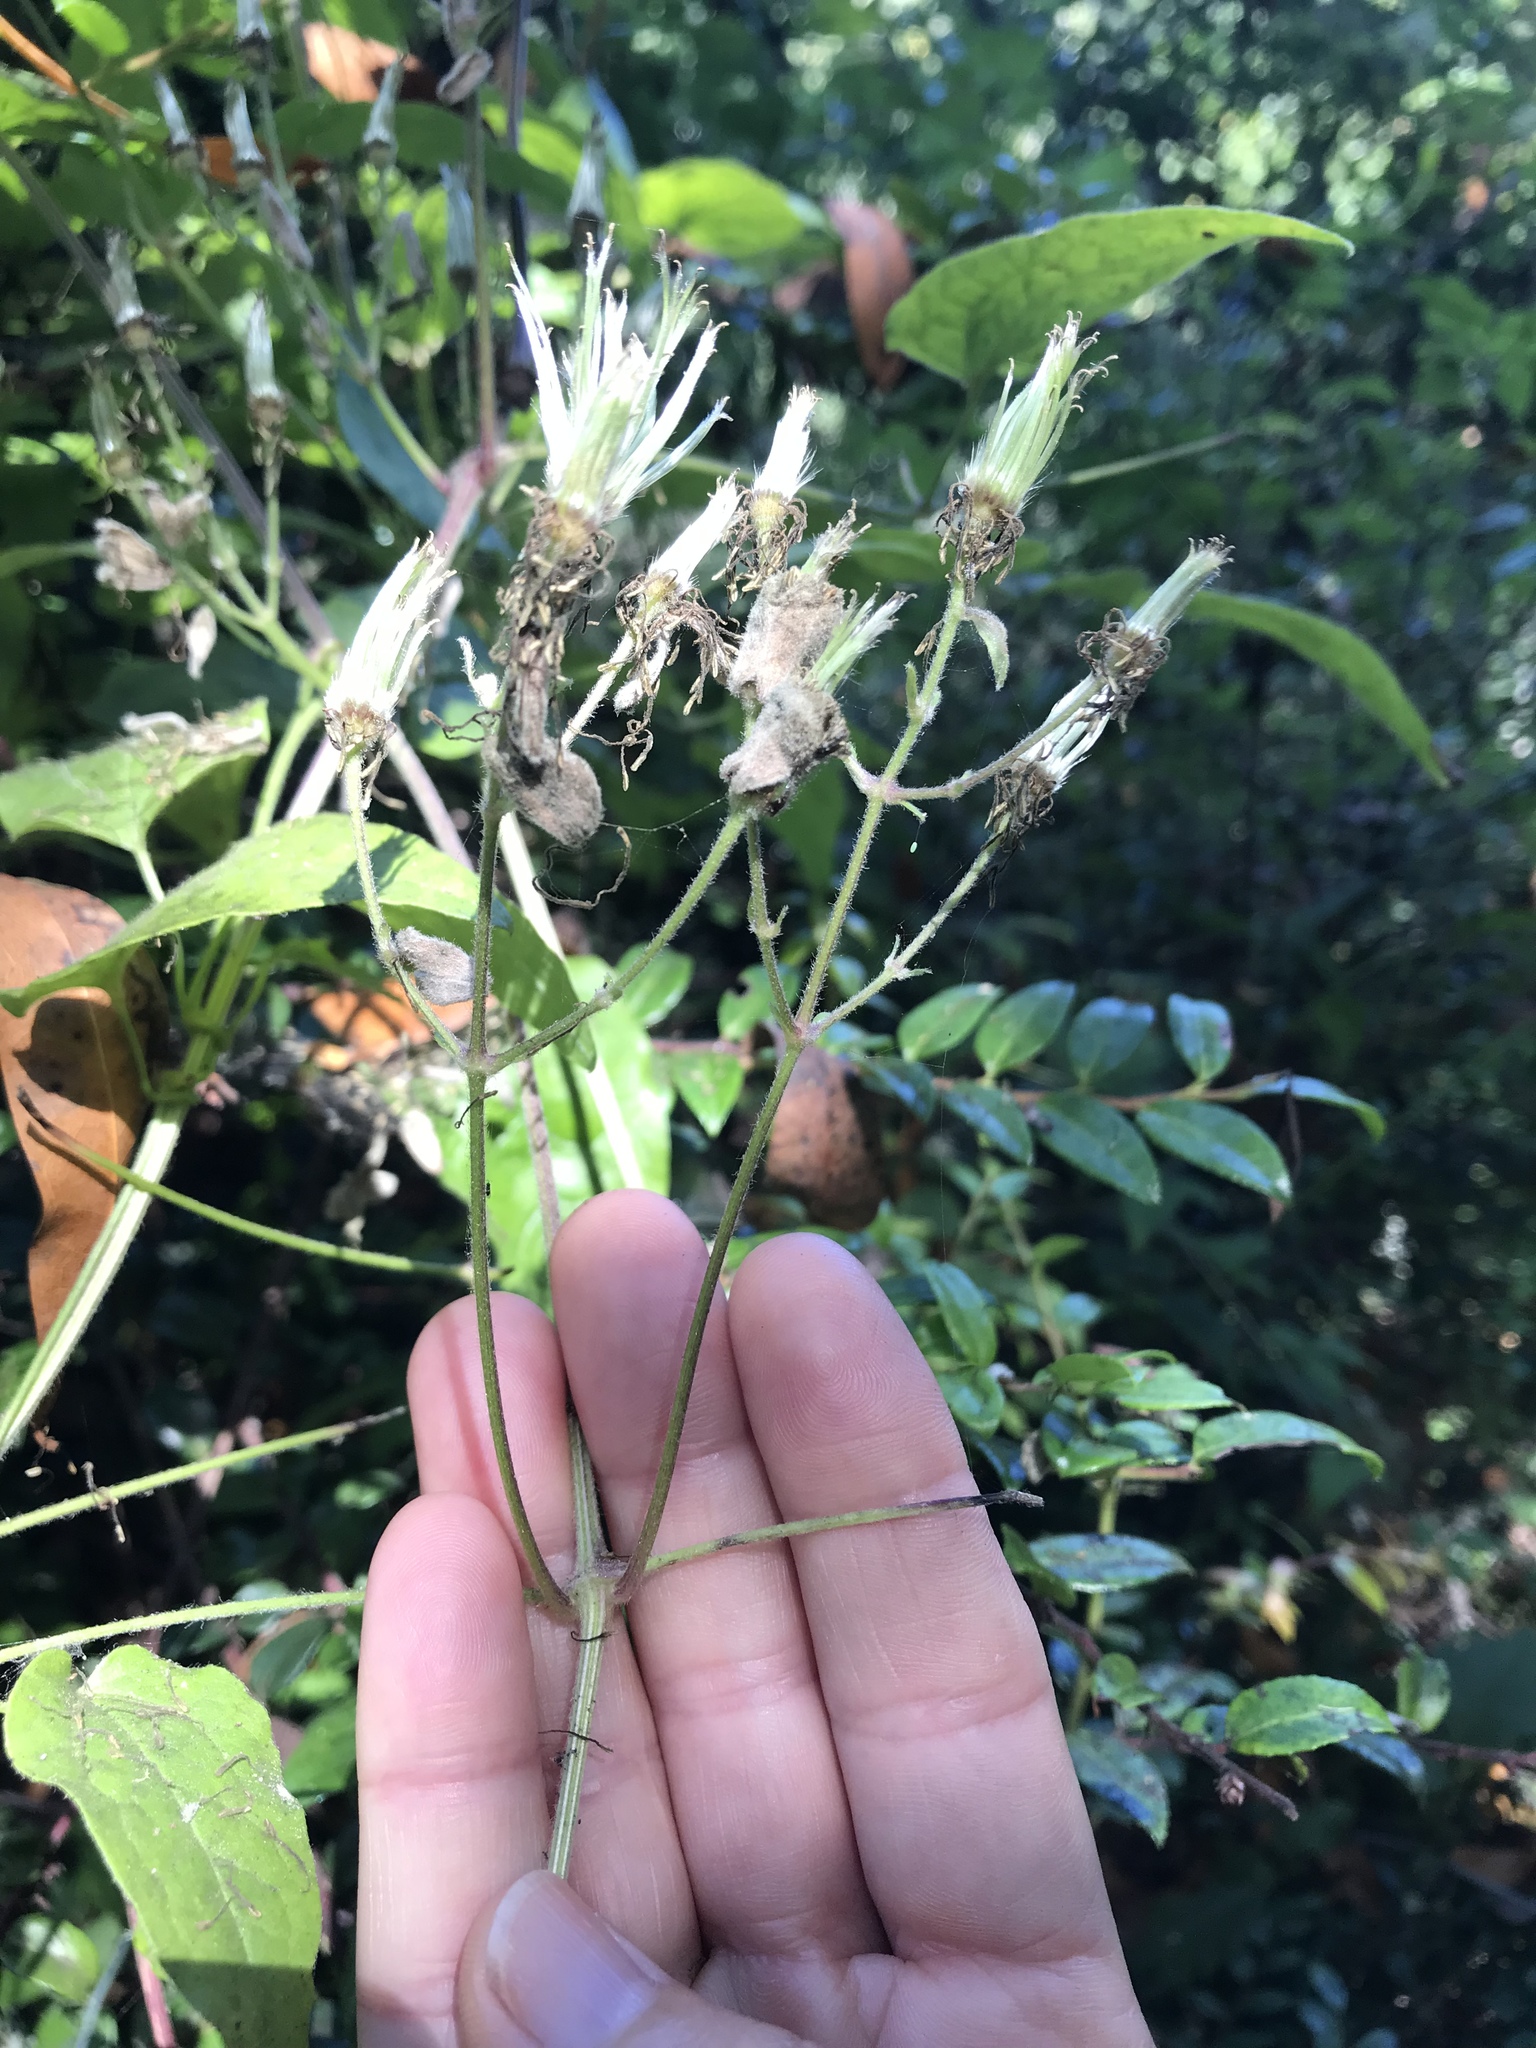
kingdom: Plantae
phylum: Tracheophyta
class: Magnoliopsida
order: Ranunculales
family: Ranunculaceae
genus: Clematis
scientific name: Clematis vitalba
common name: Evergreen clematis
